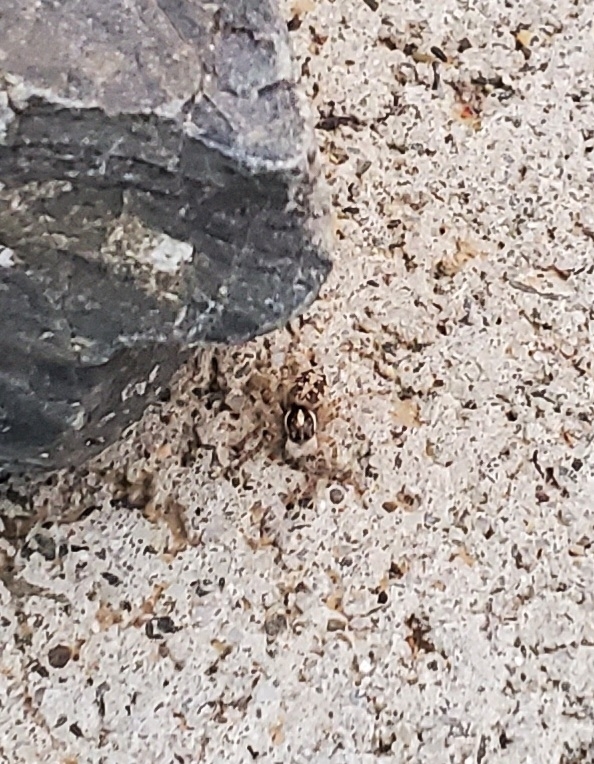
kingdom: Animalia
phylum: Arthropoda
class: Arachnida
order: Araneae
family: Salticidae
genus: Menemerus
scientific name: Menemerus semilimbatus
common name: Jumping spider
